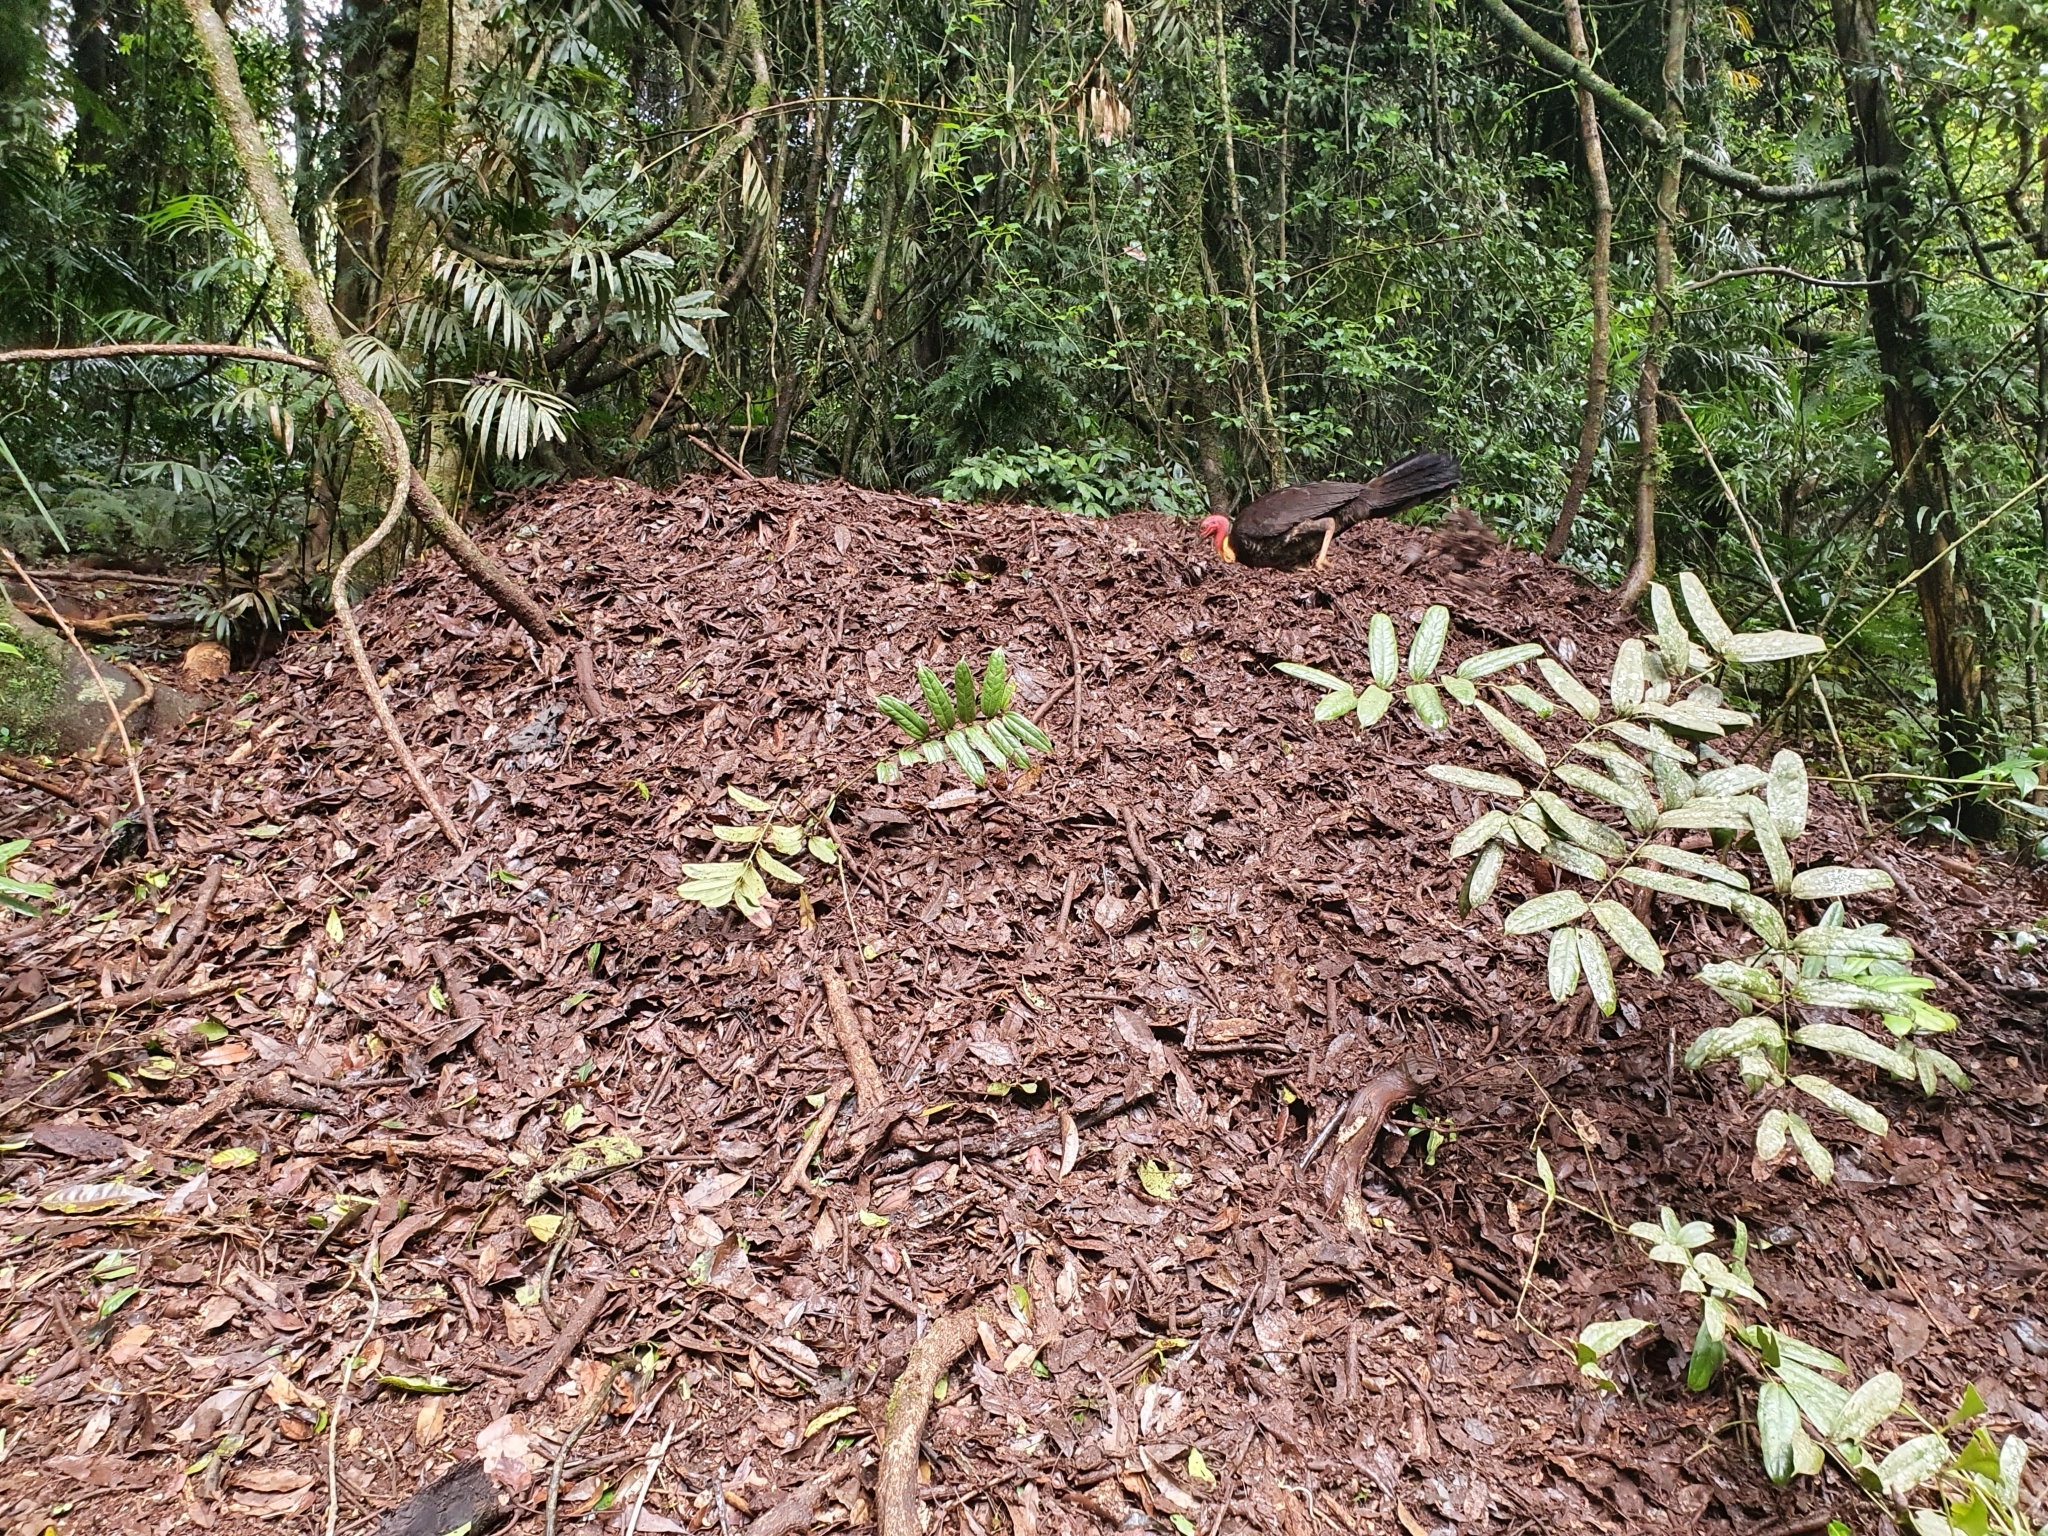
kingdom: Animalia
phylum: Chordata
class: Aves
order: Galliformes
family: Megapodiidae
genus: Alectura
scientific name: Alectura lathami
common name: Australian brushturkey
